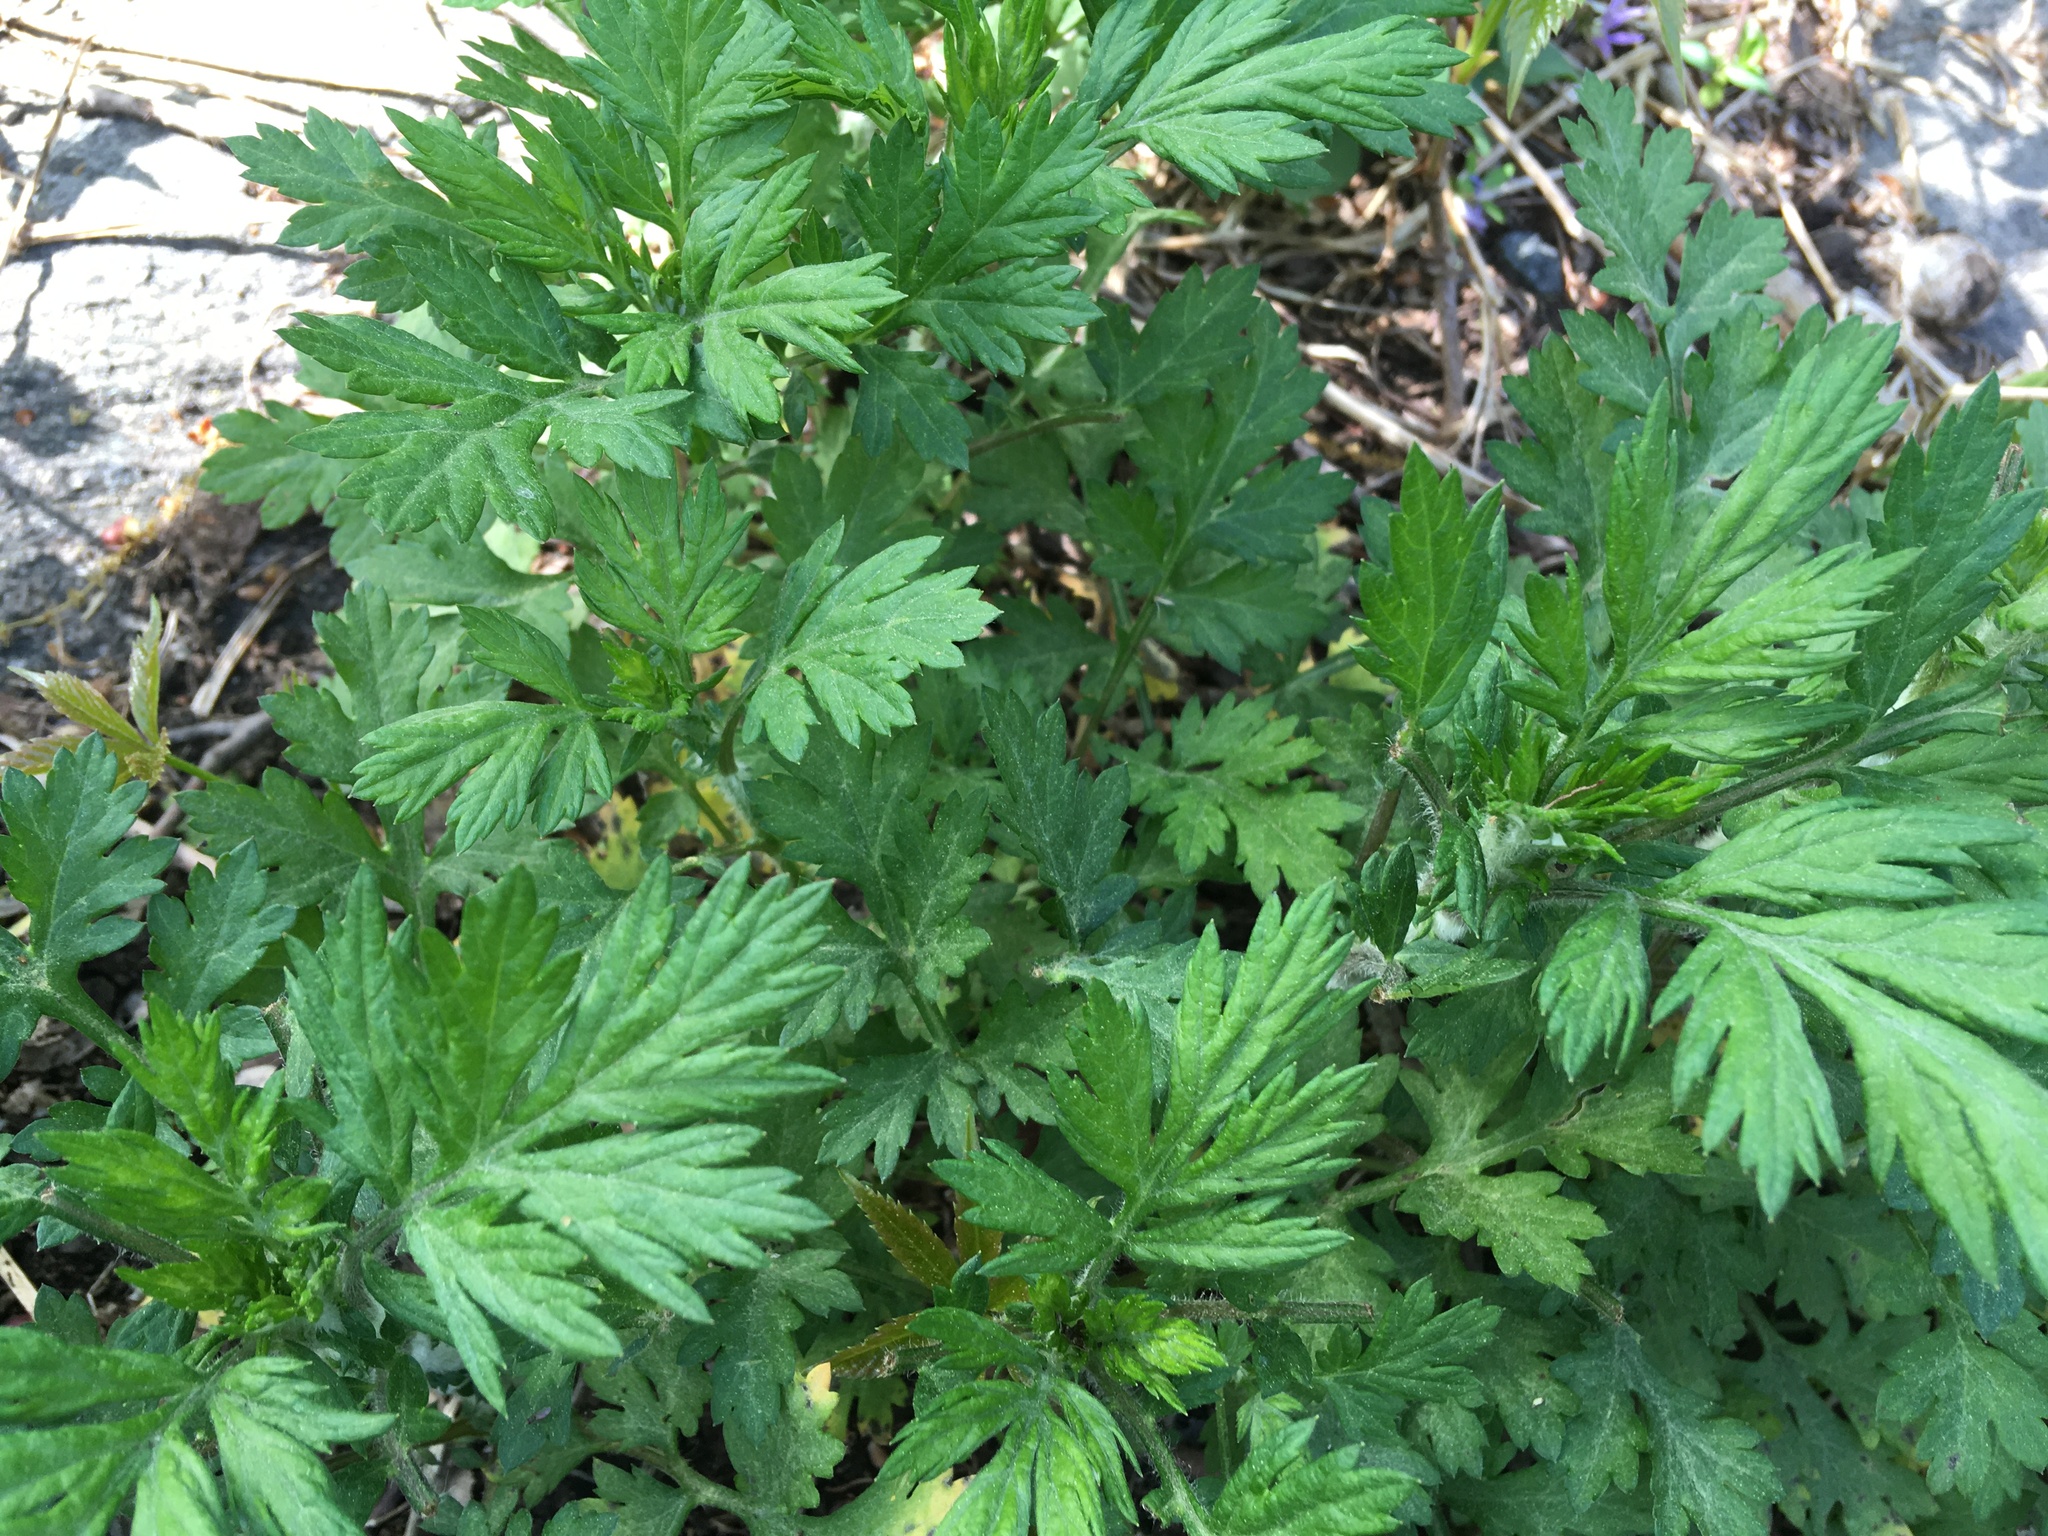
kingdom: Plantae
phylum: Tracheophyta
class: Magnoliopsida
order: Asterales
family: Asteraceae
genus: Artemisia
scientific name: Artemisia vulgaris
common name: Mugwort
